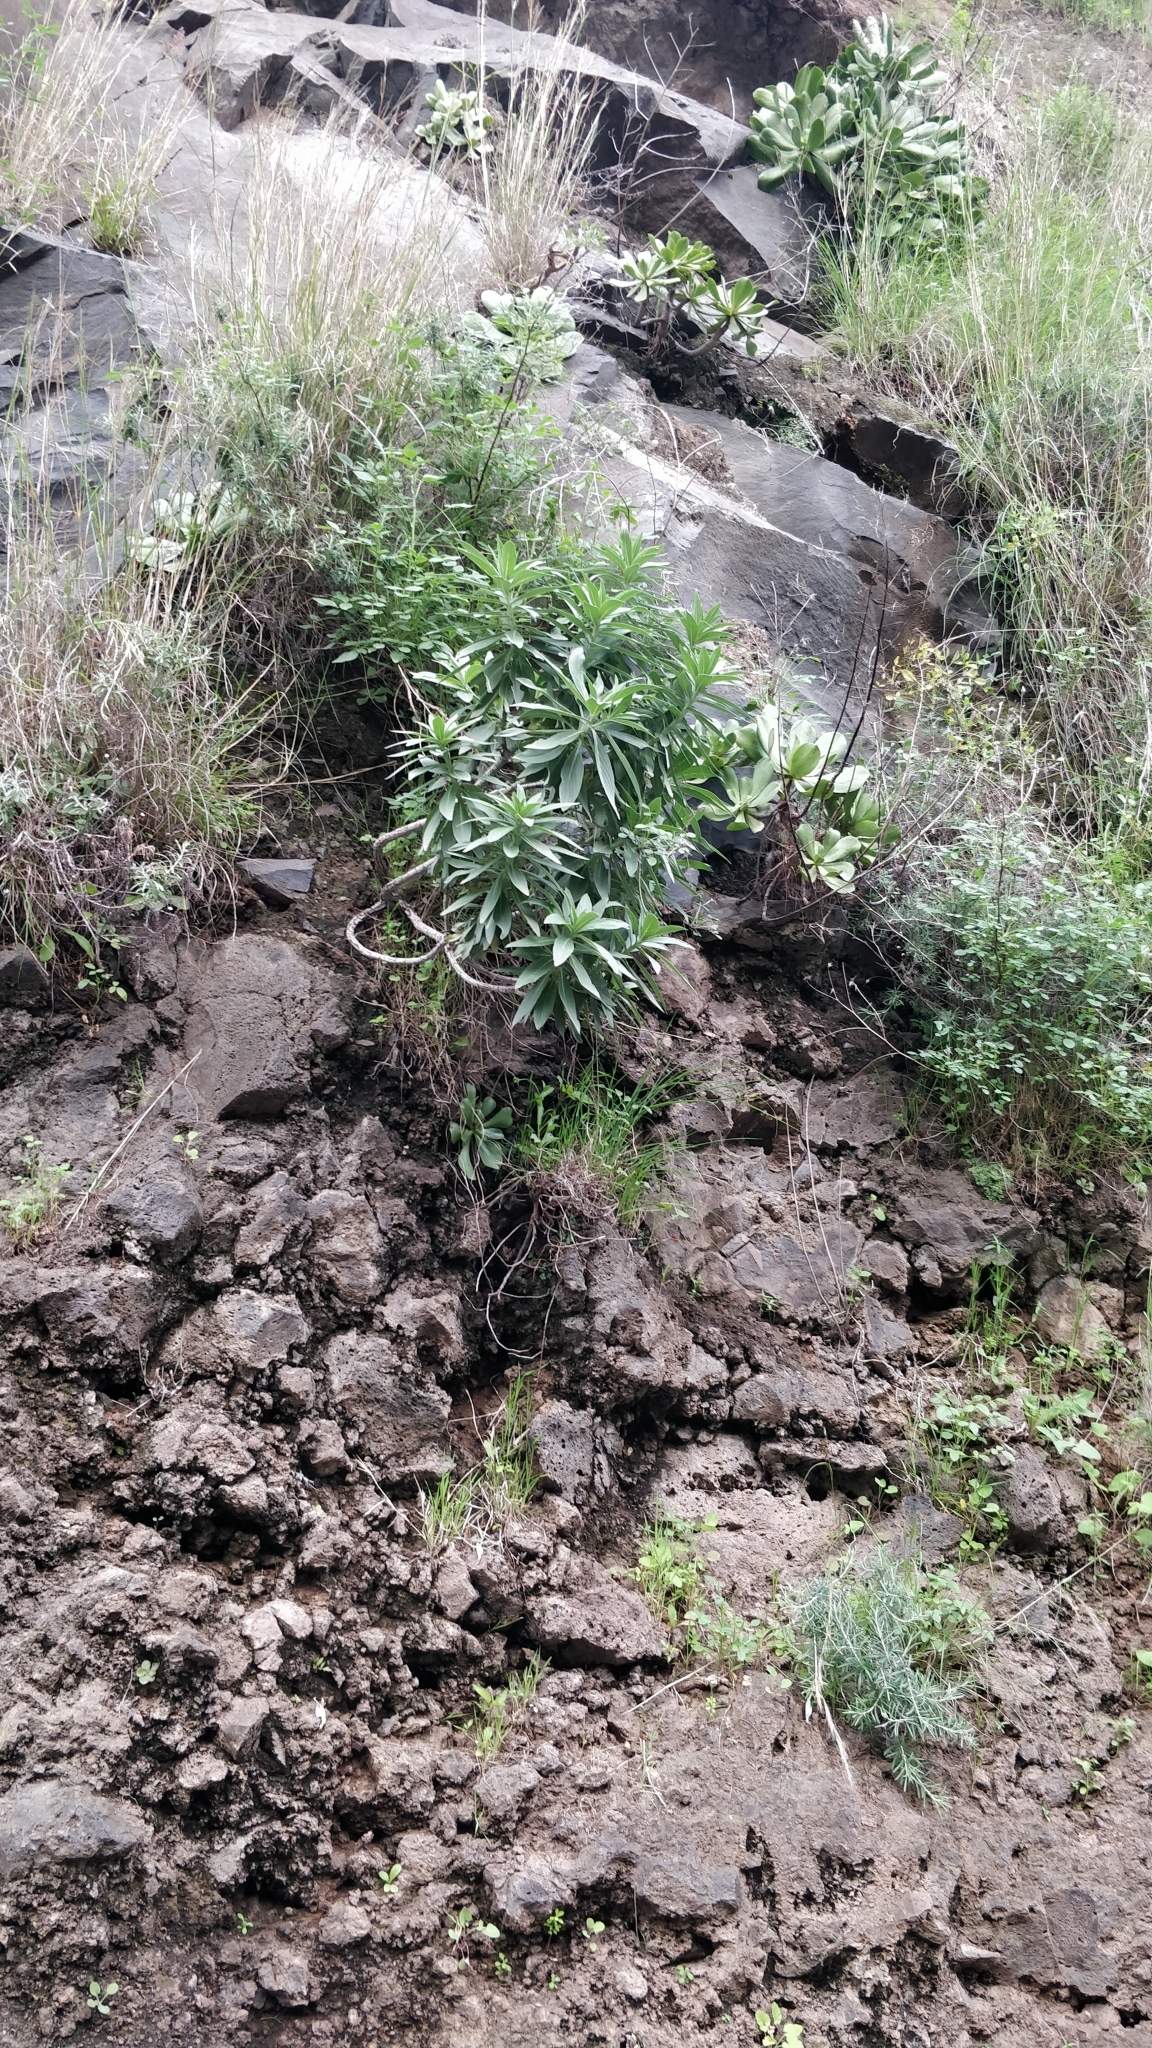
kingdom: Plantae
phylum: Tracheophyta
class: Magnoliopsida
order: Boraginales
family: Boraginaceae
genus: Echium
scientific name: Echium nervosum
